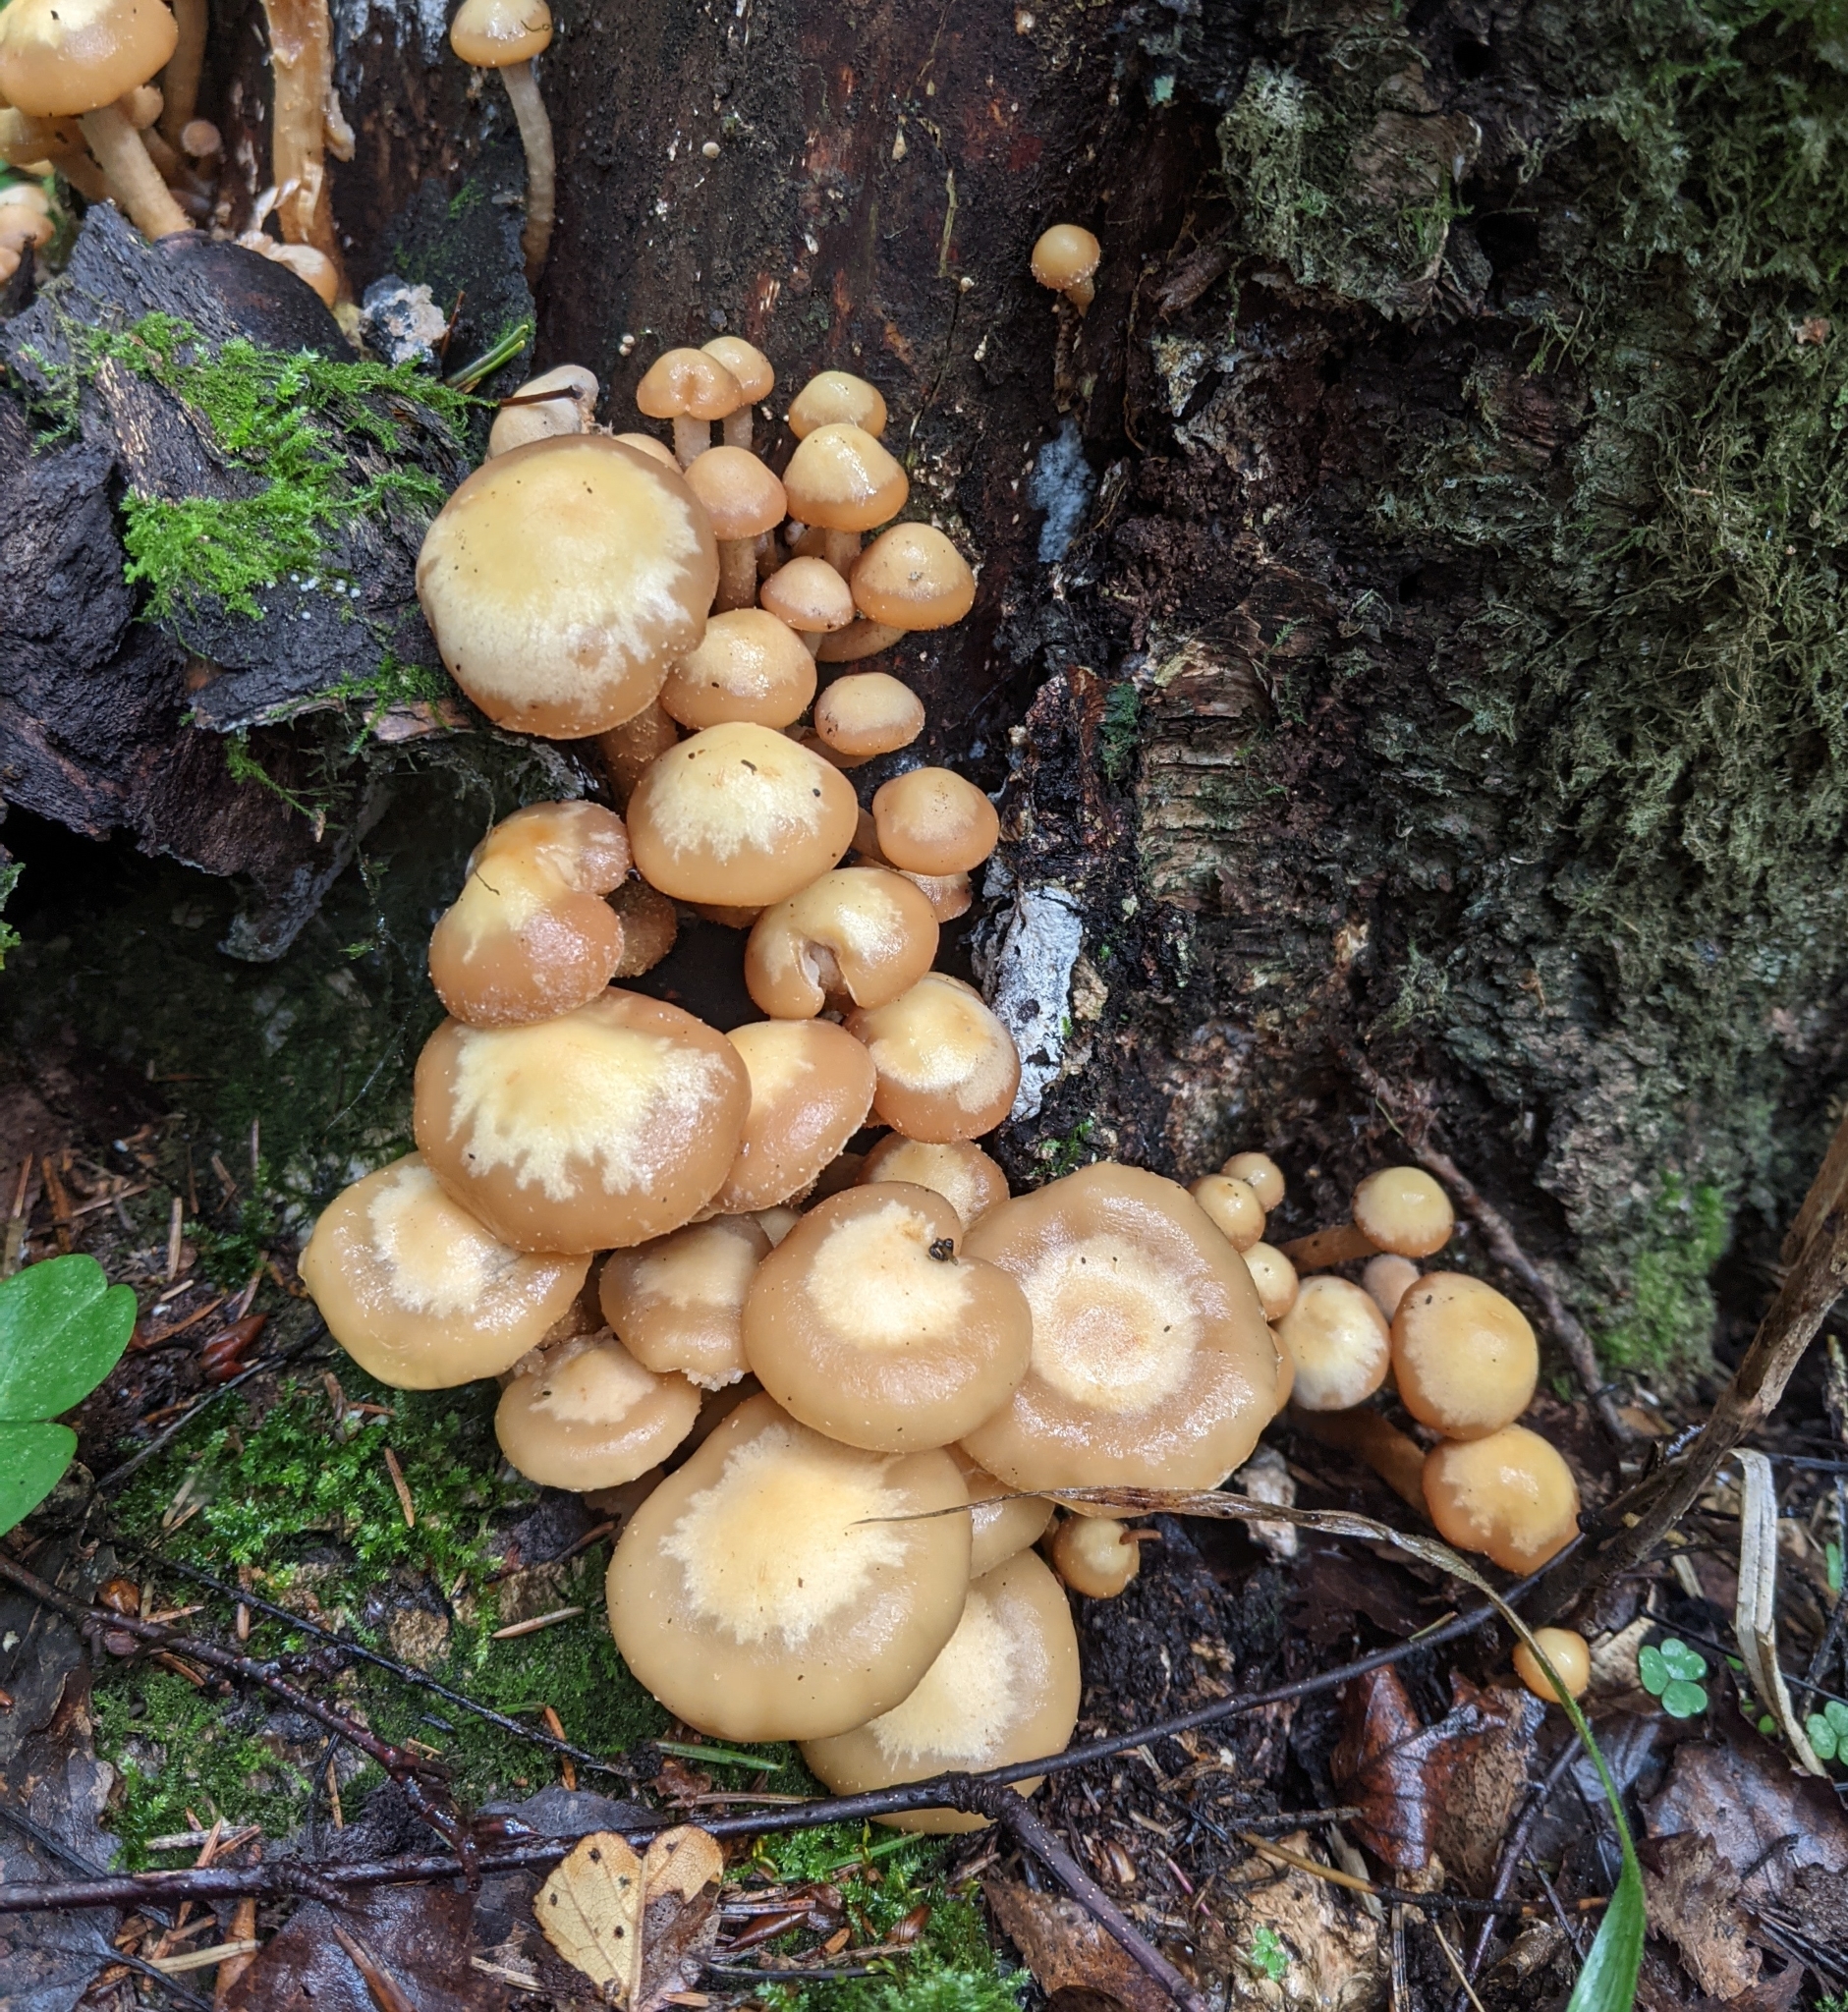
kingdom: Fungi
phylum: Basidiomycota
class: Agaricomycetes
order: Agaricales
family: Strophariaceae
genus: Kuehneromyces
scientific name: Kuehneromyces mutabilis
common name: Sheathed woodtuft
